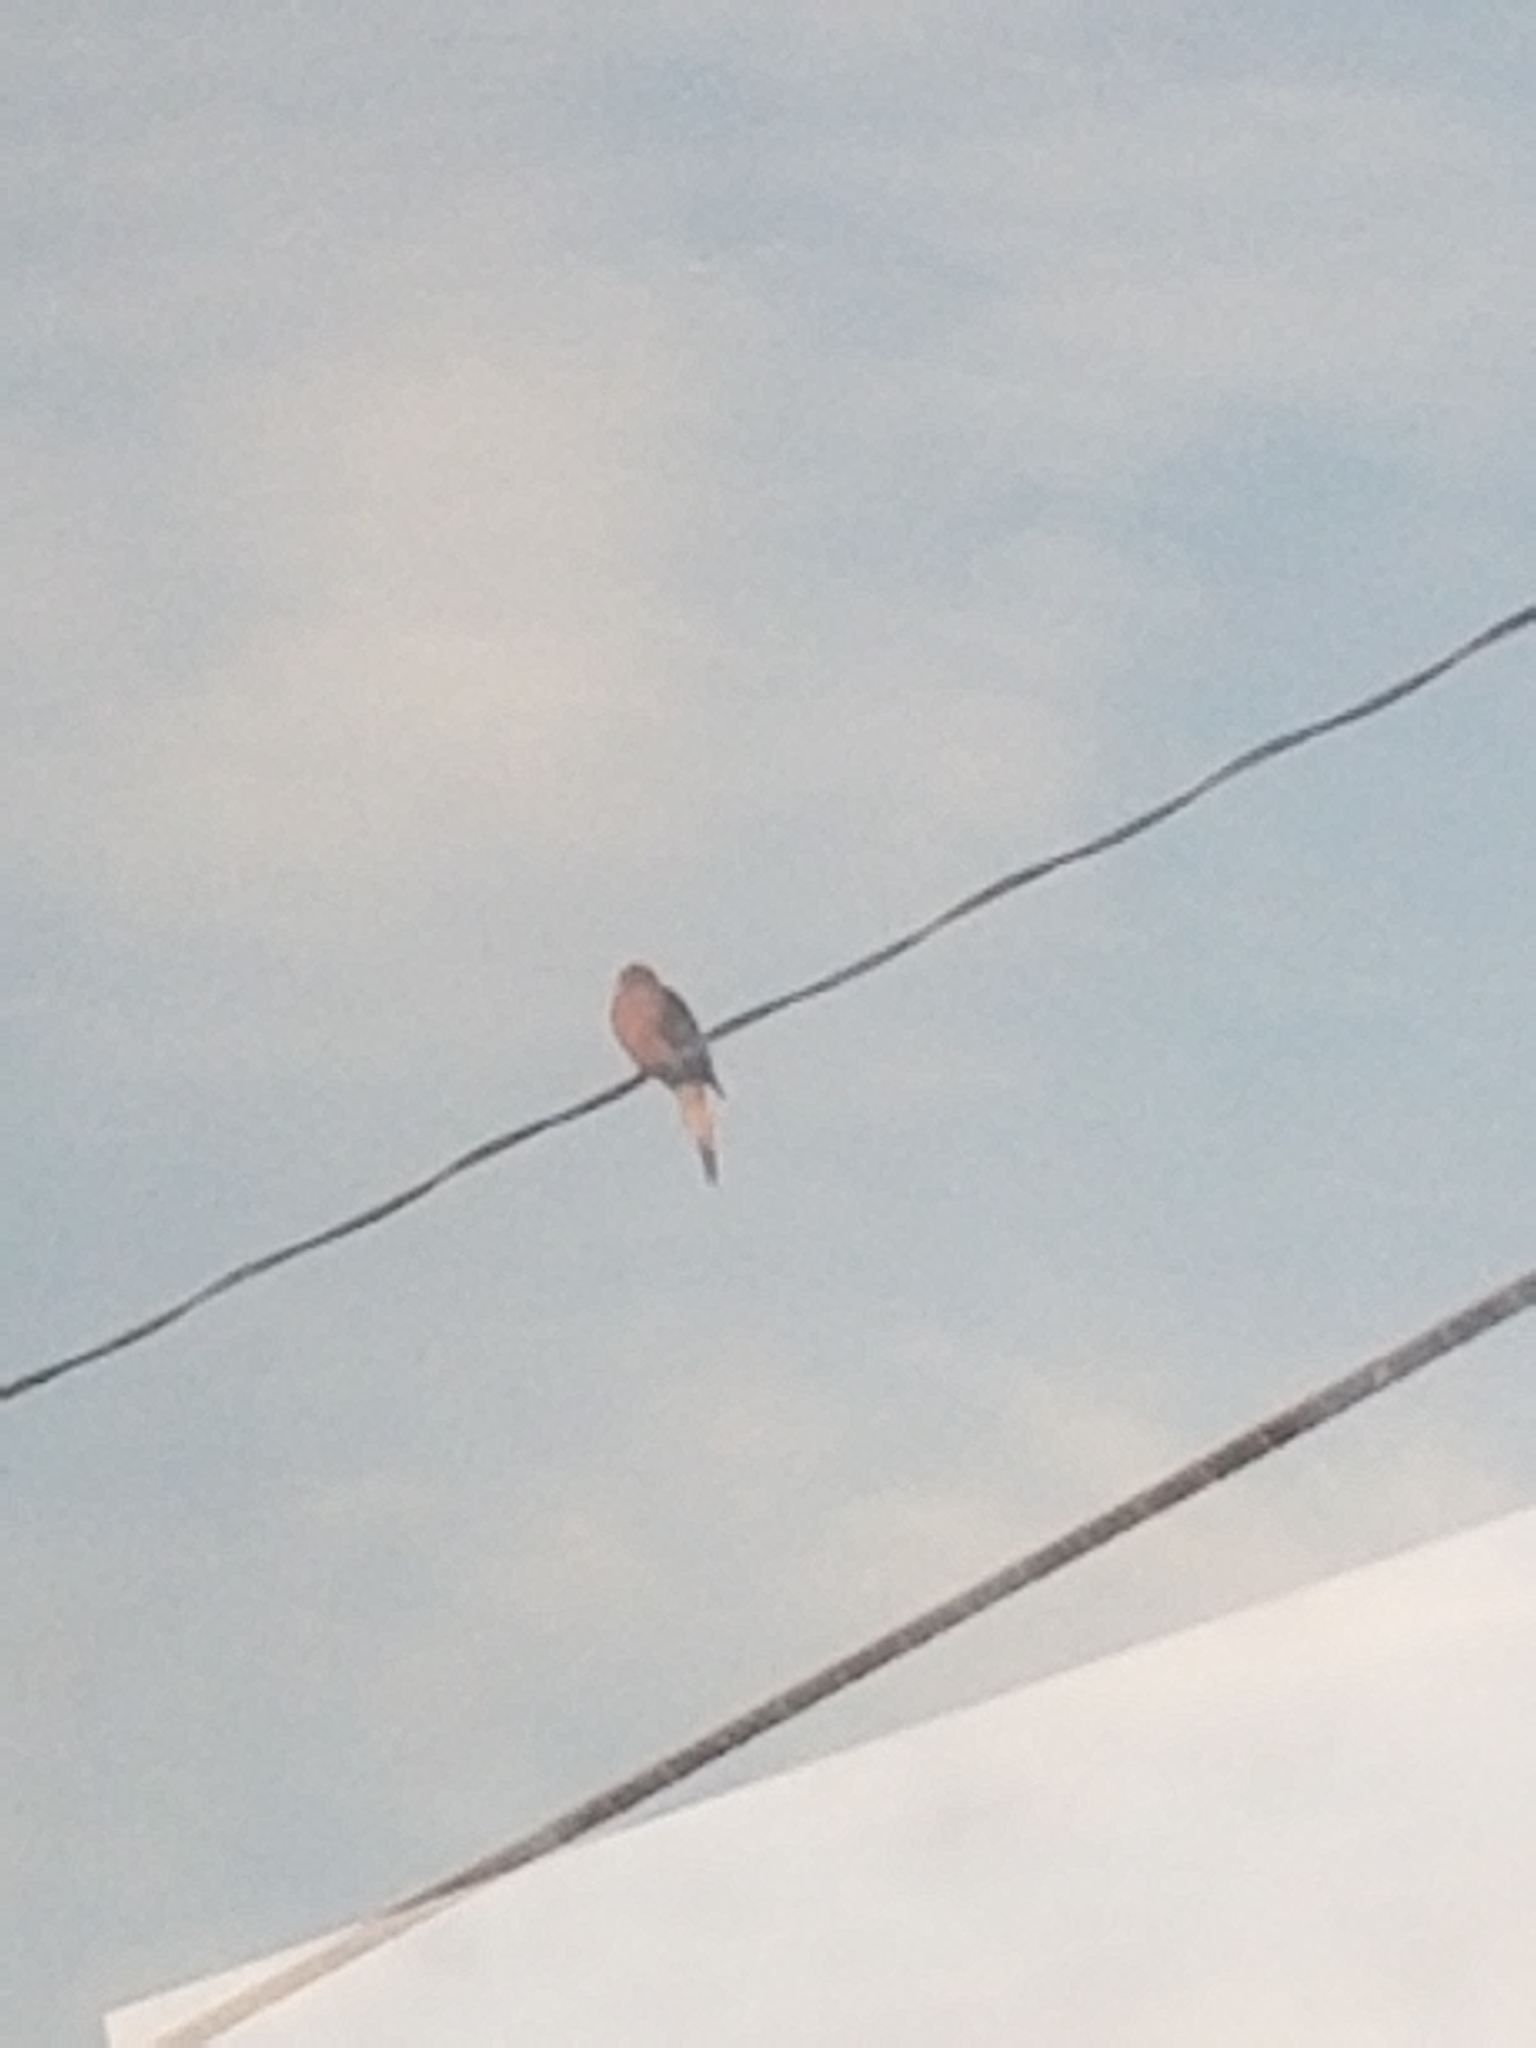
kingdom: Animalia
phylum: Chordata
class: Aves
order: Columbiformes
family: Columbidae
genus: Zenaida
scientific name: Zenaida macroura
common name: Mourning dove
